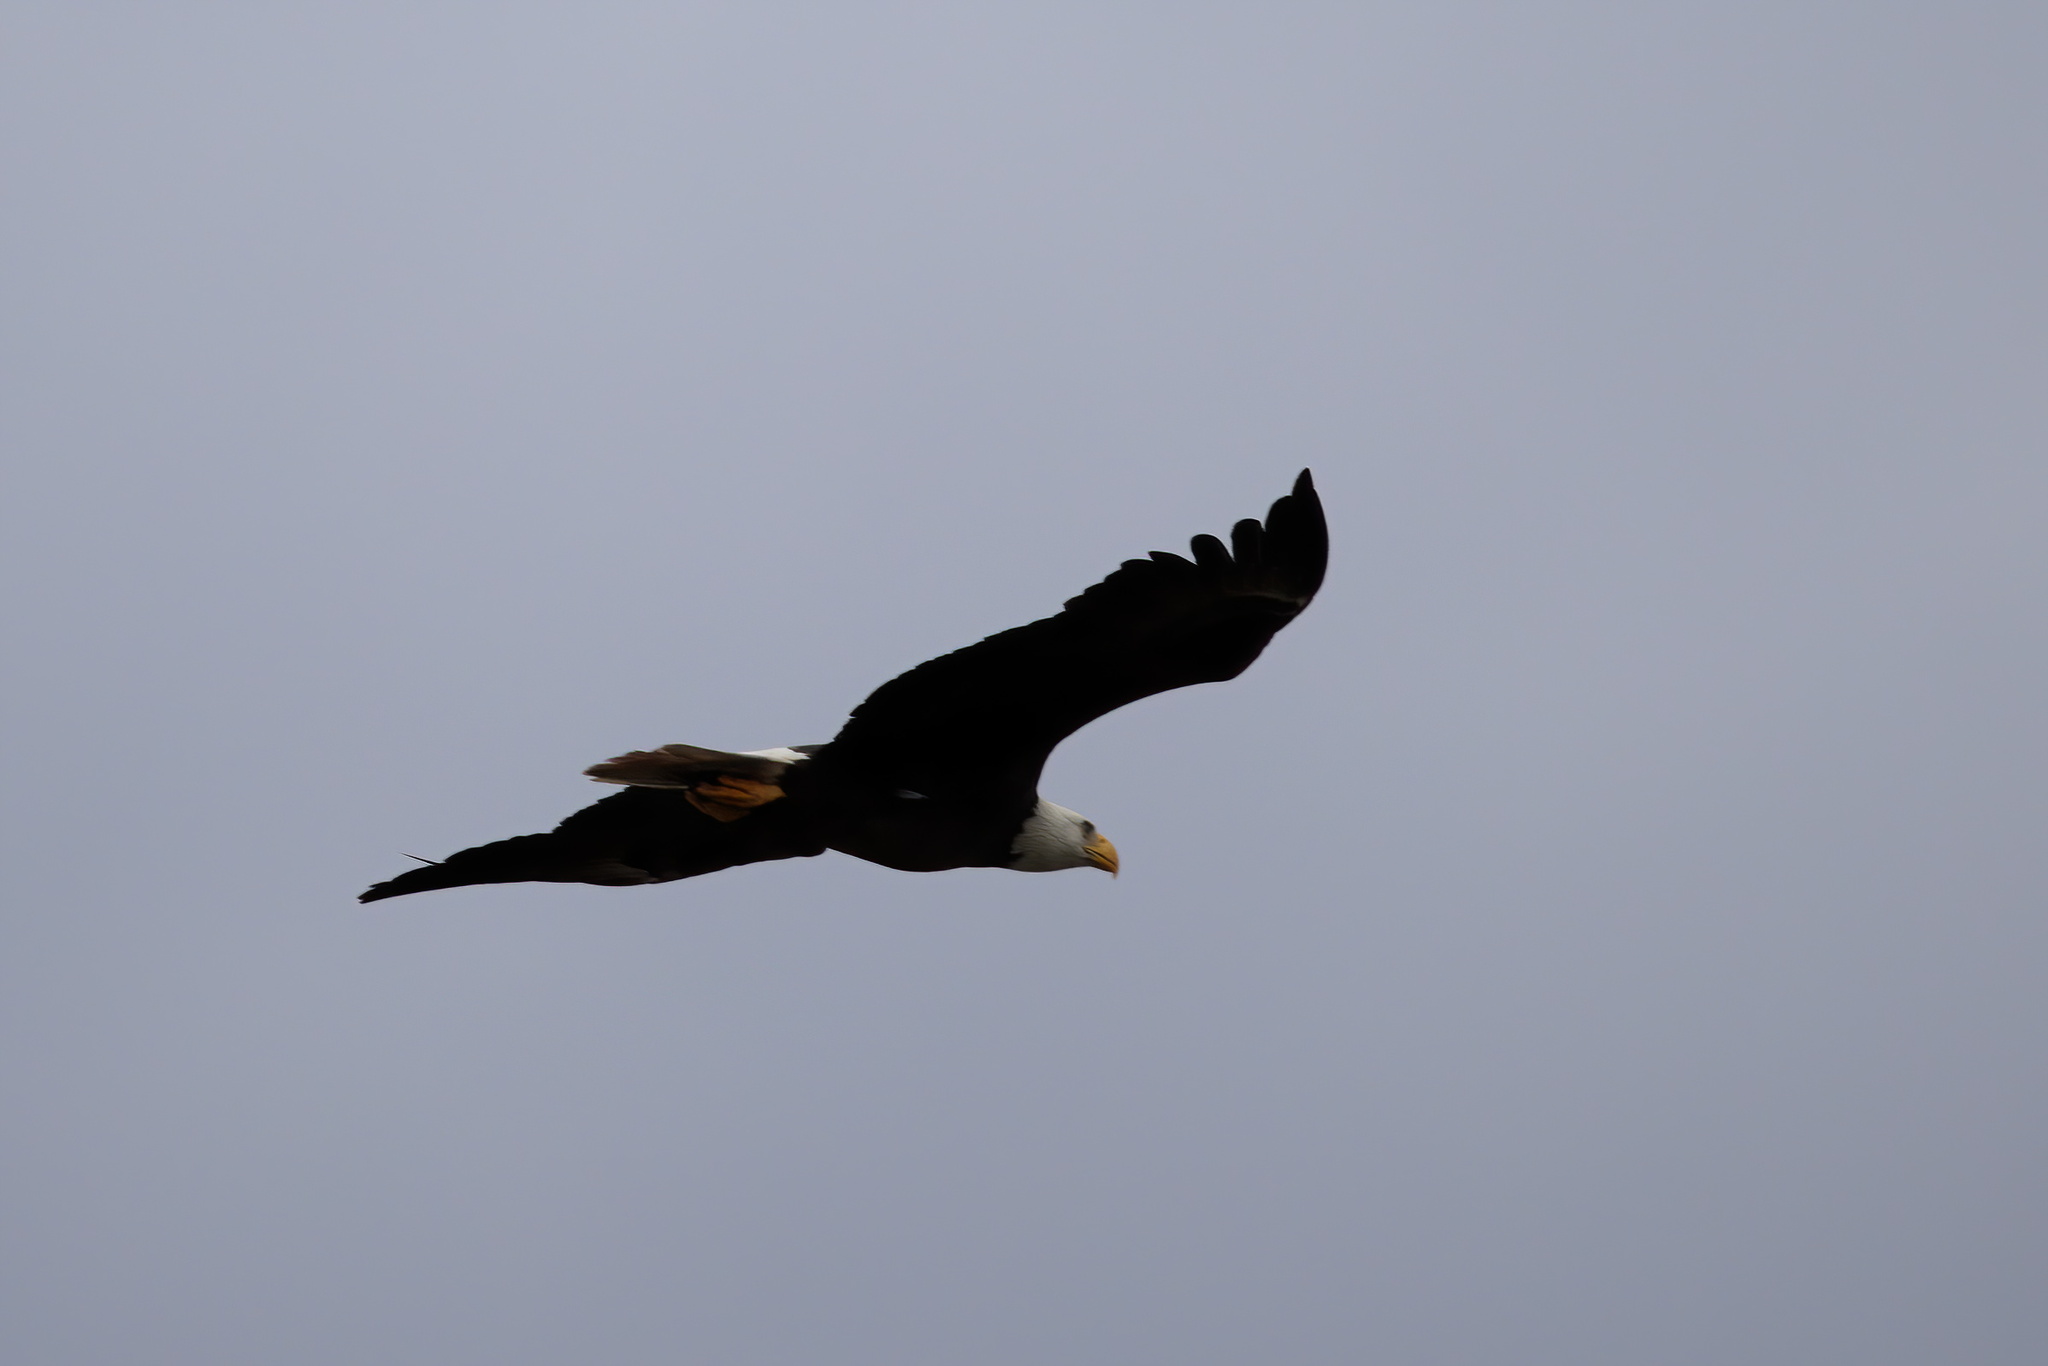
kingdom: Animalia
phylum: Chordata
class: Aves
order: Accipitriformes
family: Accipitridae
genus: Haliaeetus
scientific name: Haliaeetus leucocephalus
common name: Bald eagle
